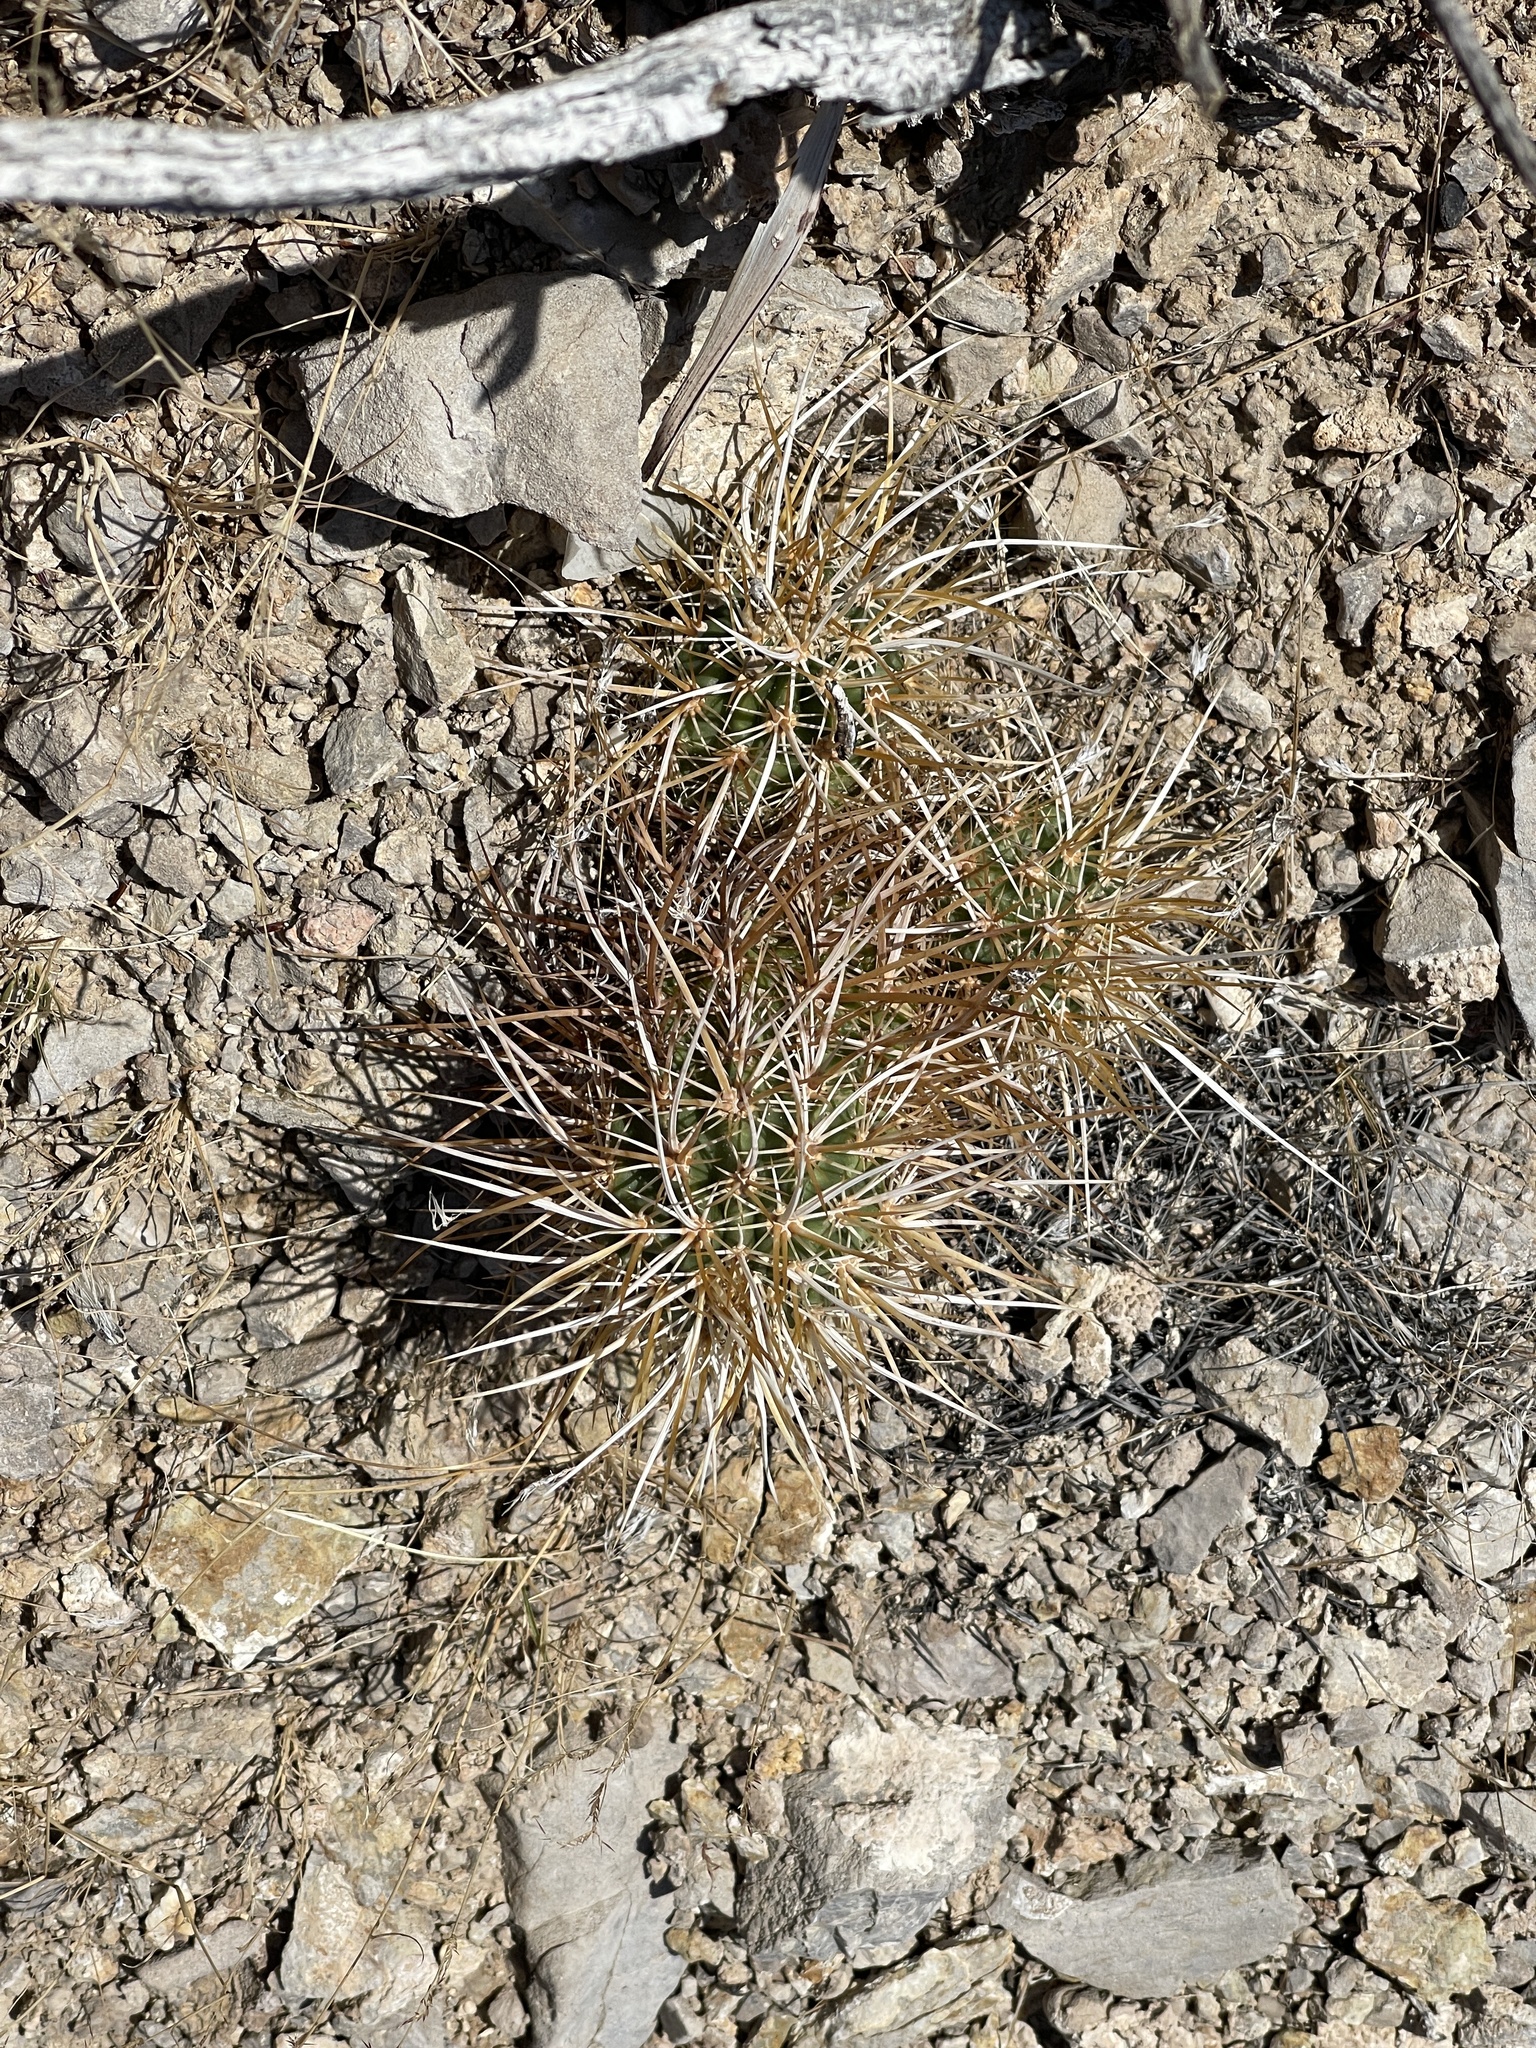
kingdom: Plantae
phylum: Tracheophyta
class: Magnoliopsida
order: Caryophyllales
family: Cactaceae
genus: Echinocereus
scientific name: Echinocereus engelmannii
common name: Engelmann's hedgehog cactus
